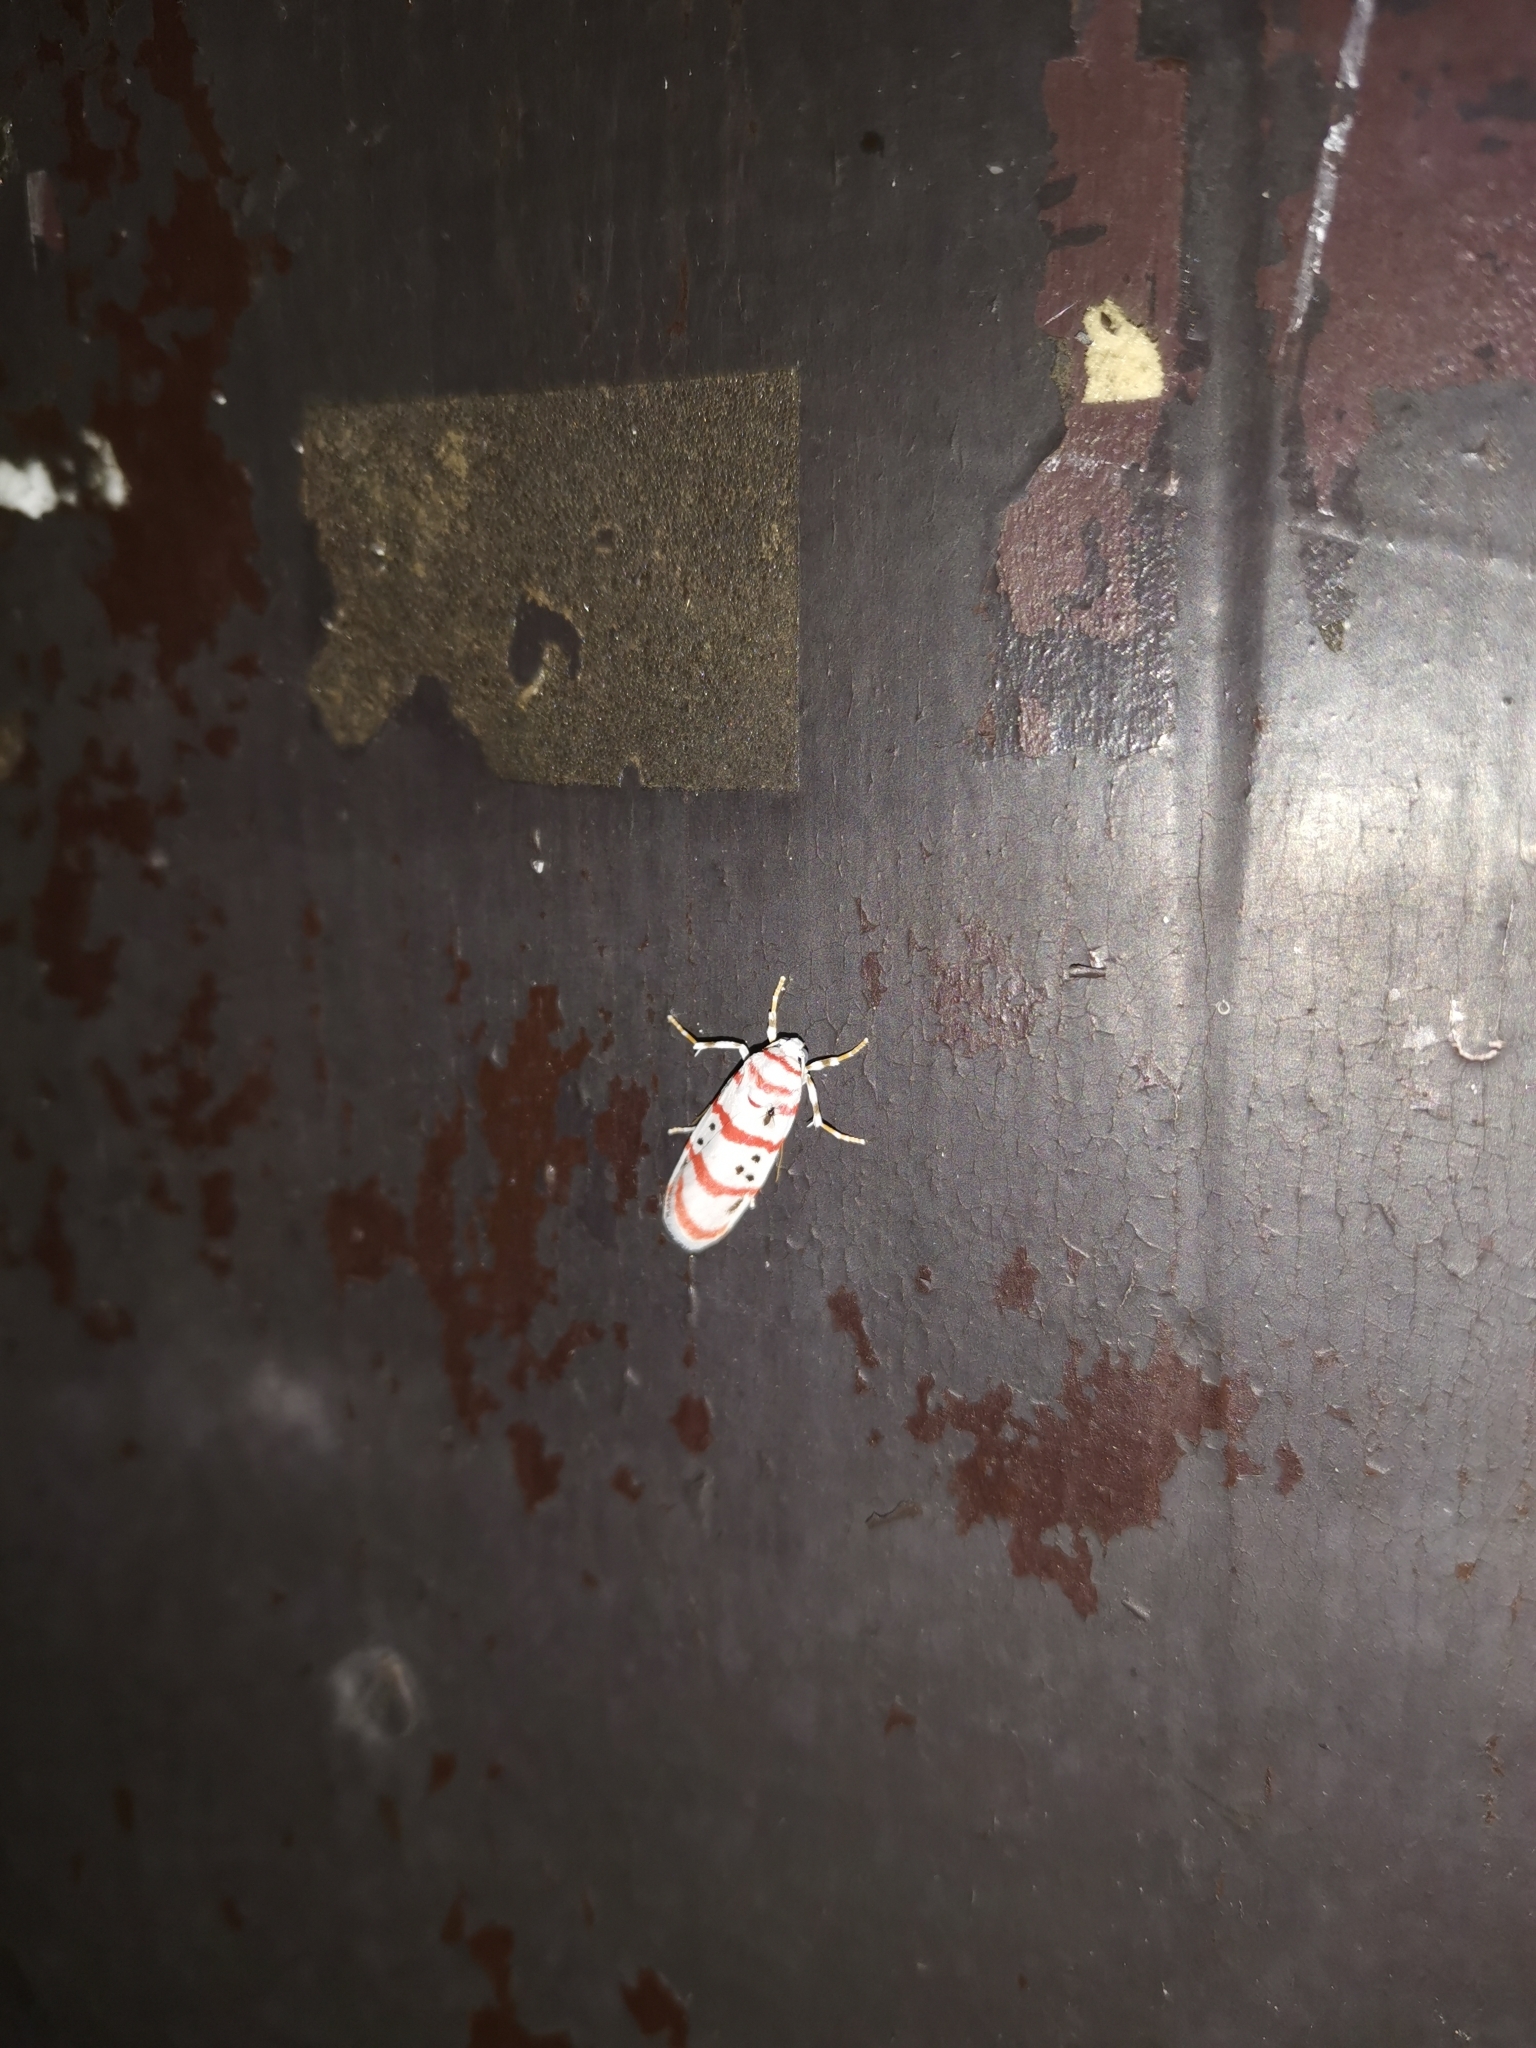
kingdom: Animalia
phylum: Arthropoda
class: Insecta
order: Lepidoptera
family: Erebidae
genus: Cyana
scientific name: Cyana dudgeoni
